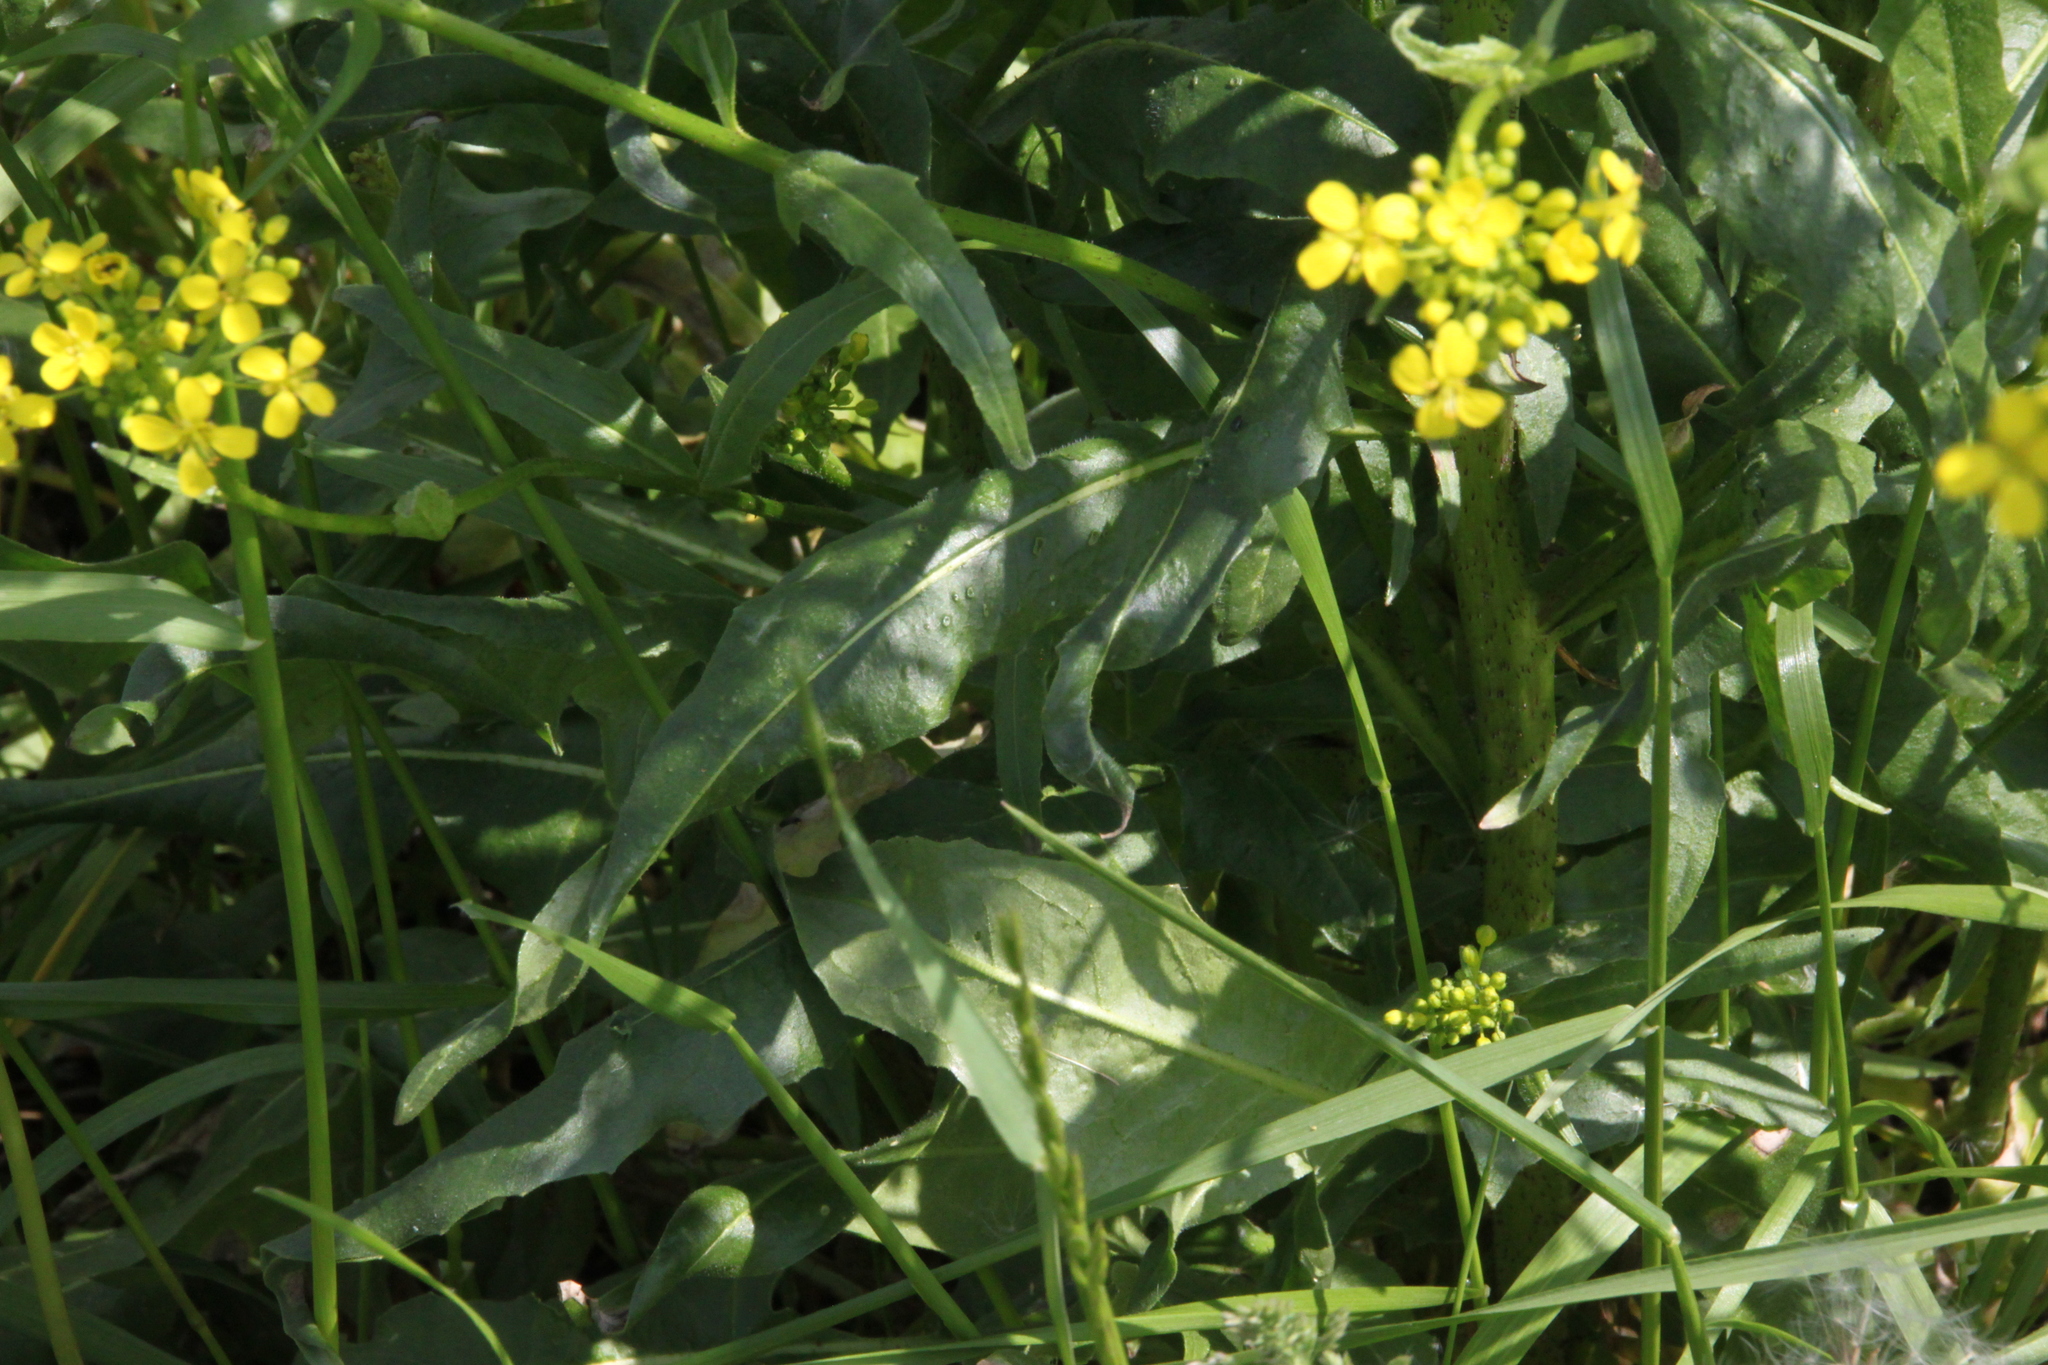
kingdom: Plantae
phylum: Tracheophyta
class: Magnoliopsida
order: Brassicales
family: Brassicaceae
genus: Bunias
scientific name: Bunias orientalis
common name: Warty-cabbage
